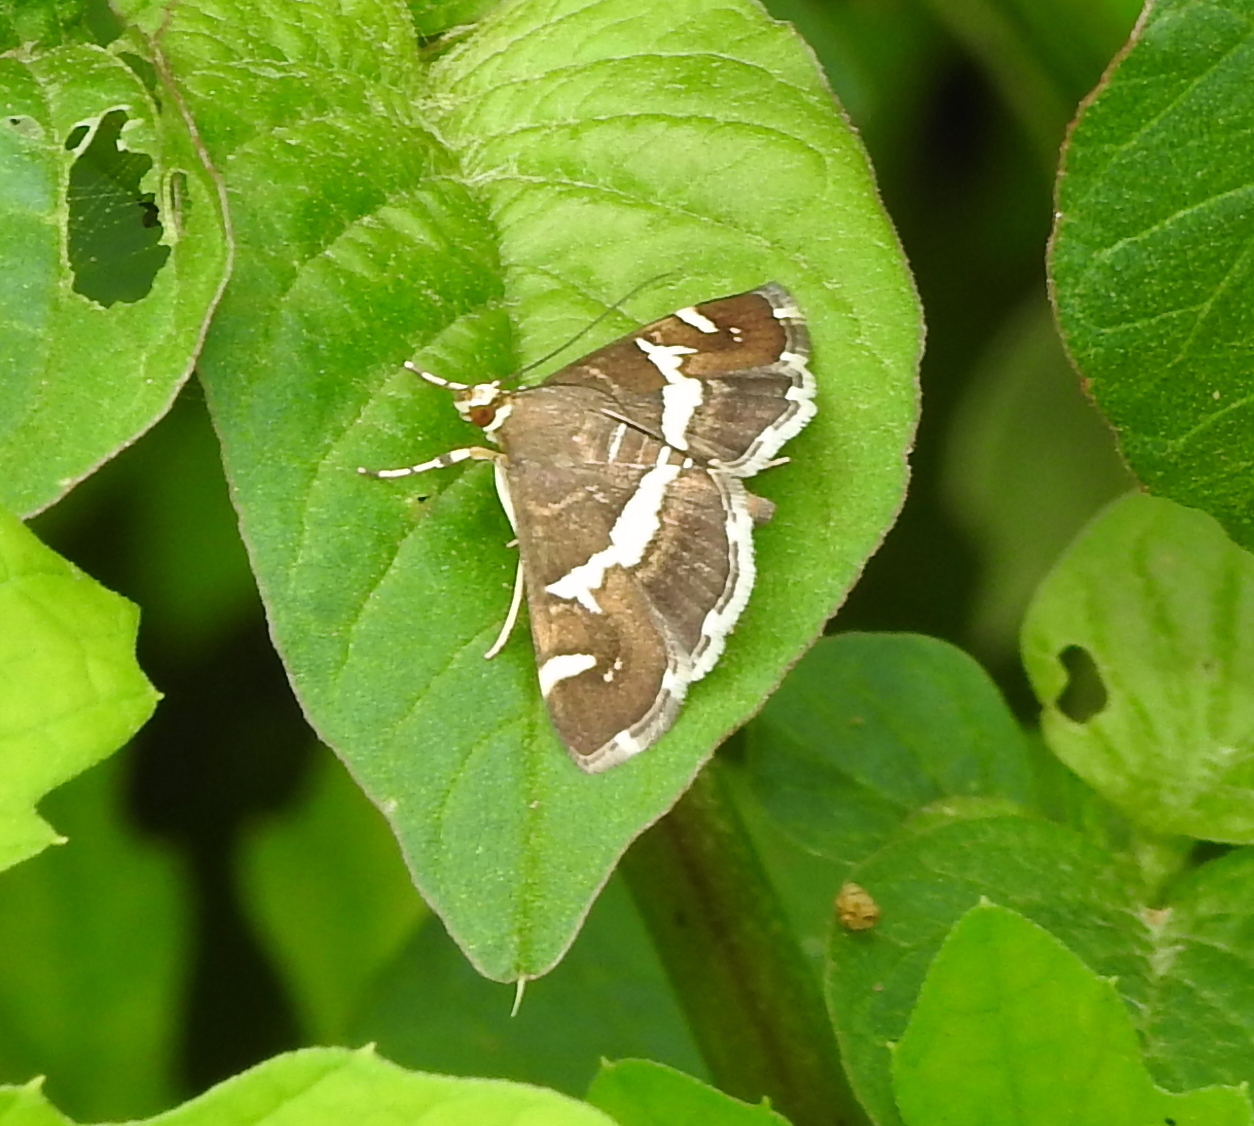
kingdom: Animalia
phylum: Arthropoda
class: Insecta
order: Lepidoptera
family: Crambidae
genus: Spoladea
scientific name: Spoladea recurvalis
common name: Beet webworm moth
